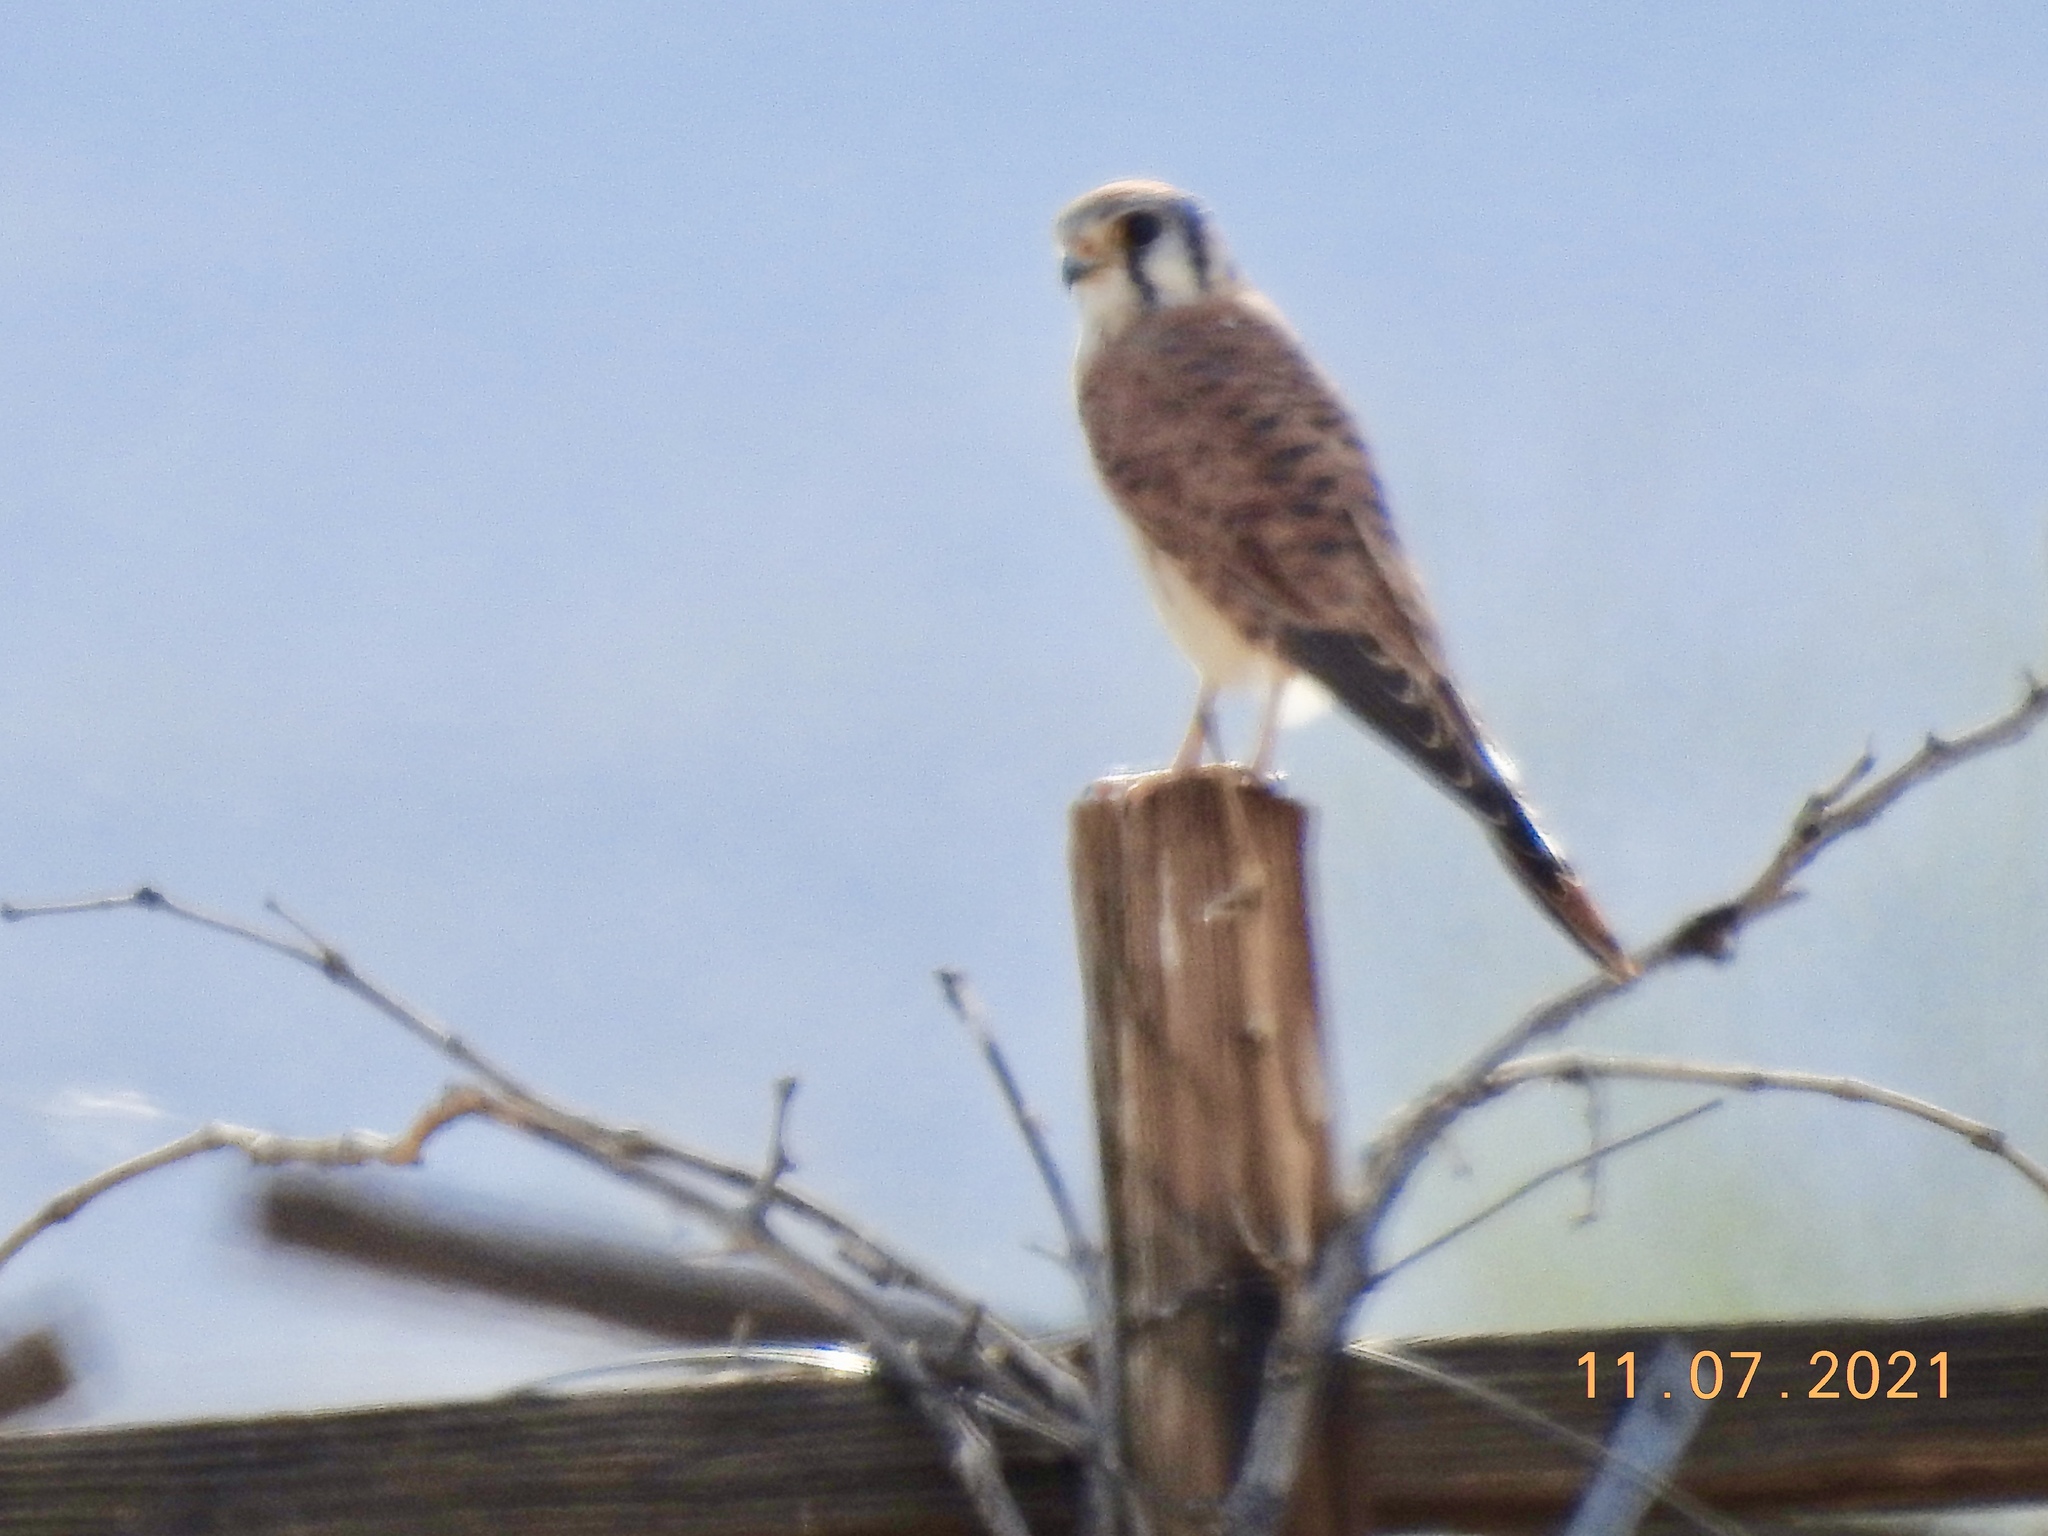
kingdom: Animalia
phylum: Chordata
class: Aves
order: Falconiformes
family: Falconidae
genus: Falco
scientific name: Falco sparverius
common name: American kestrel
